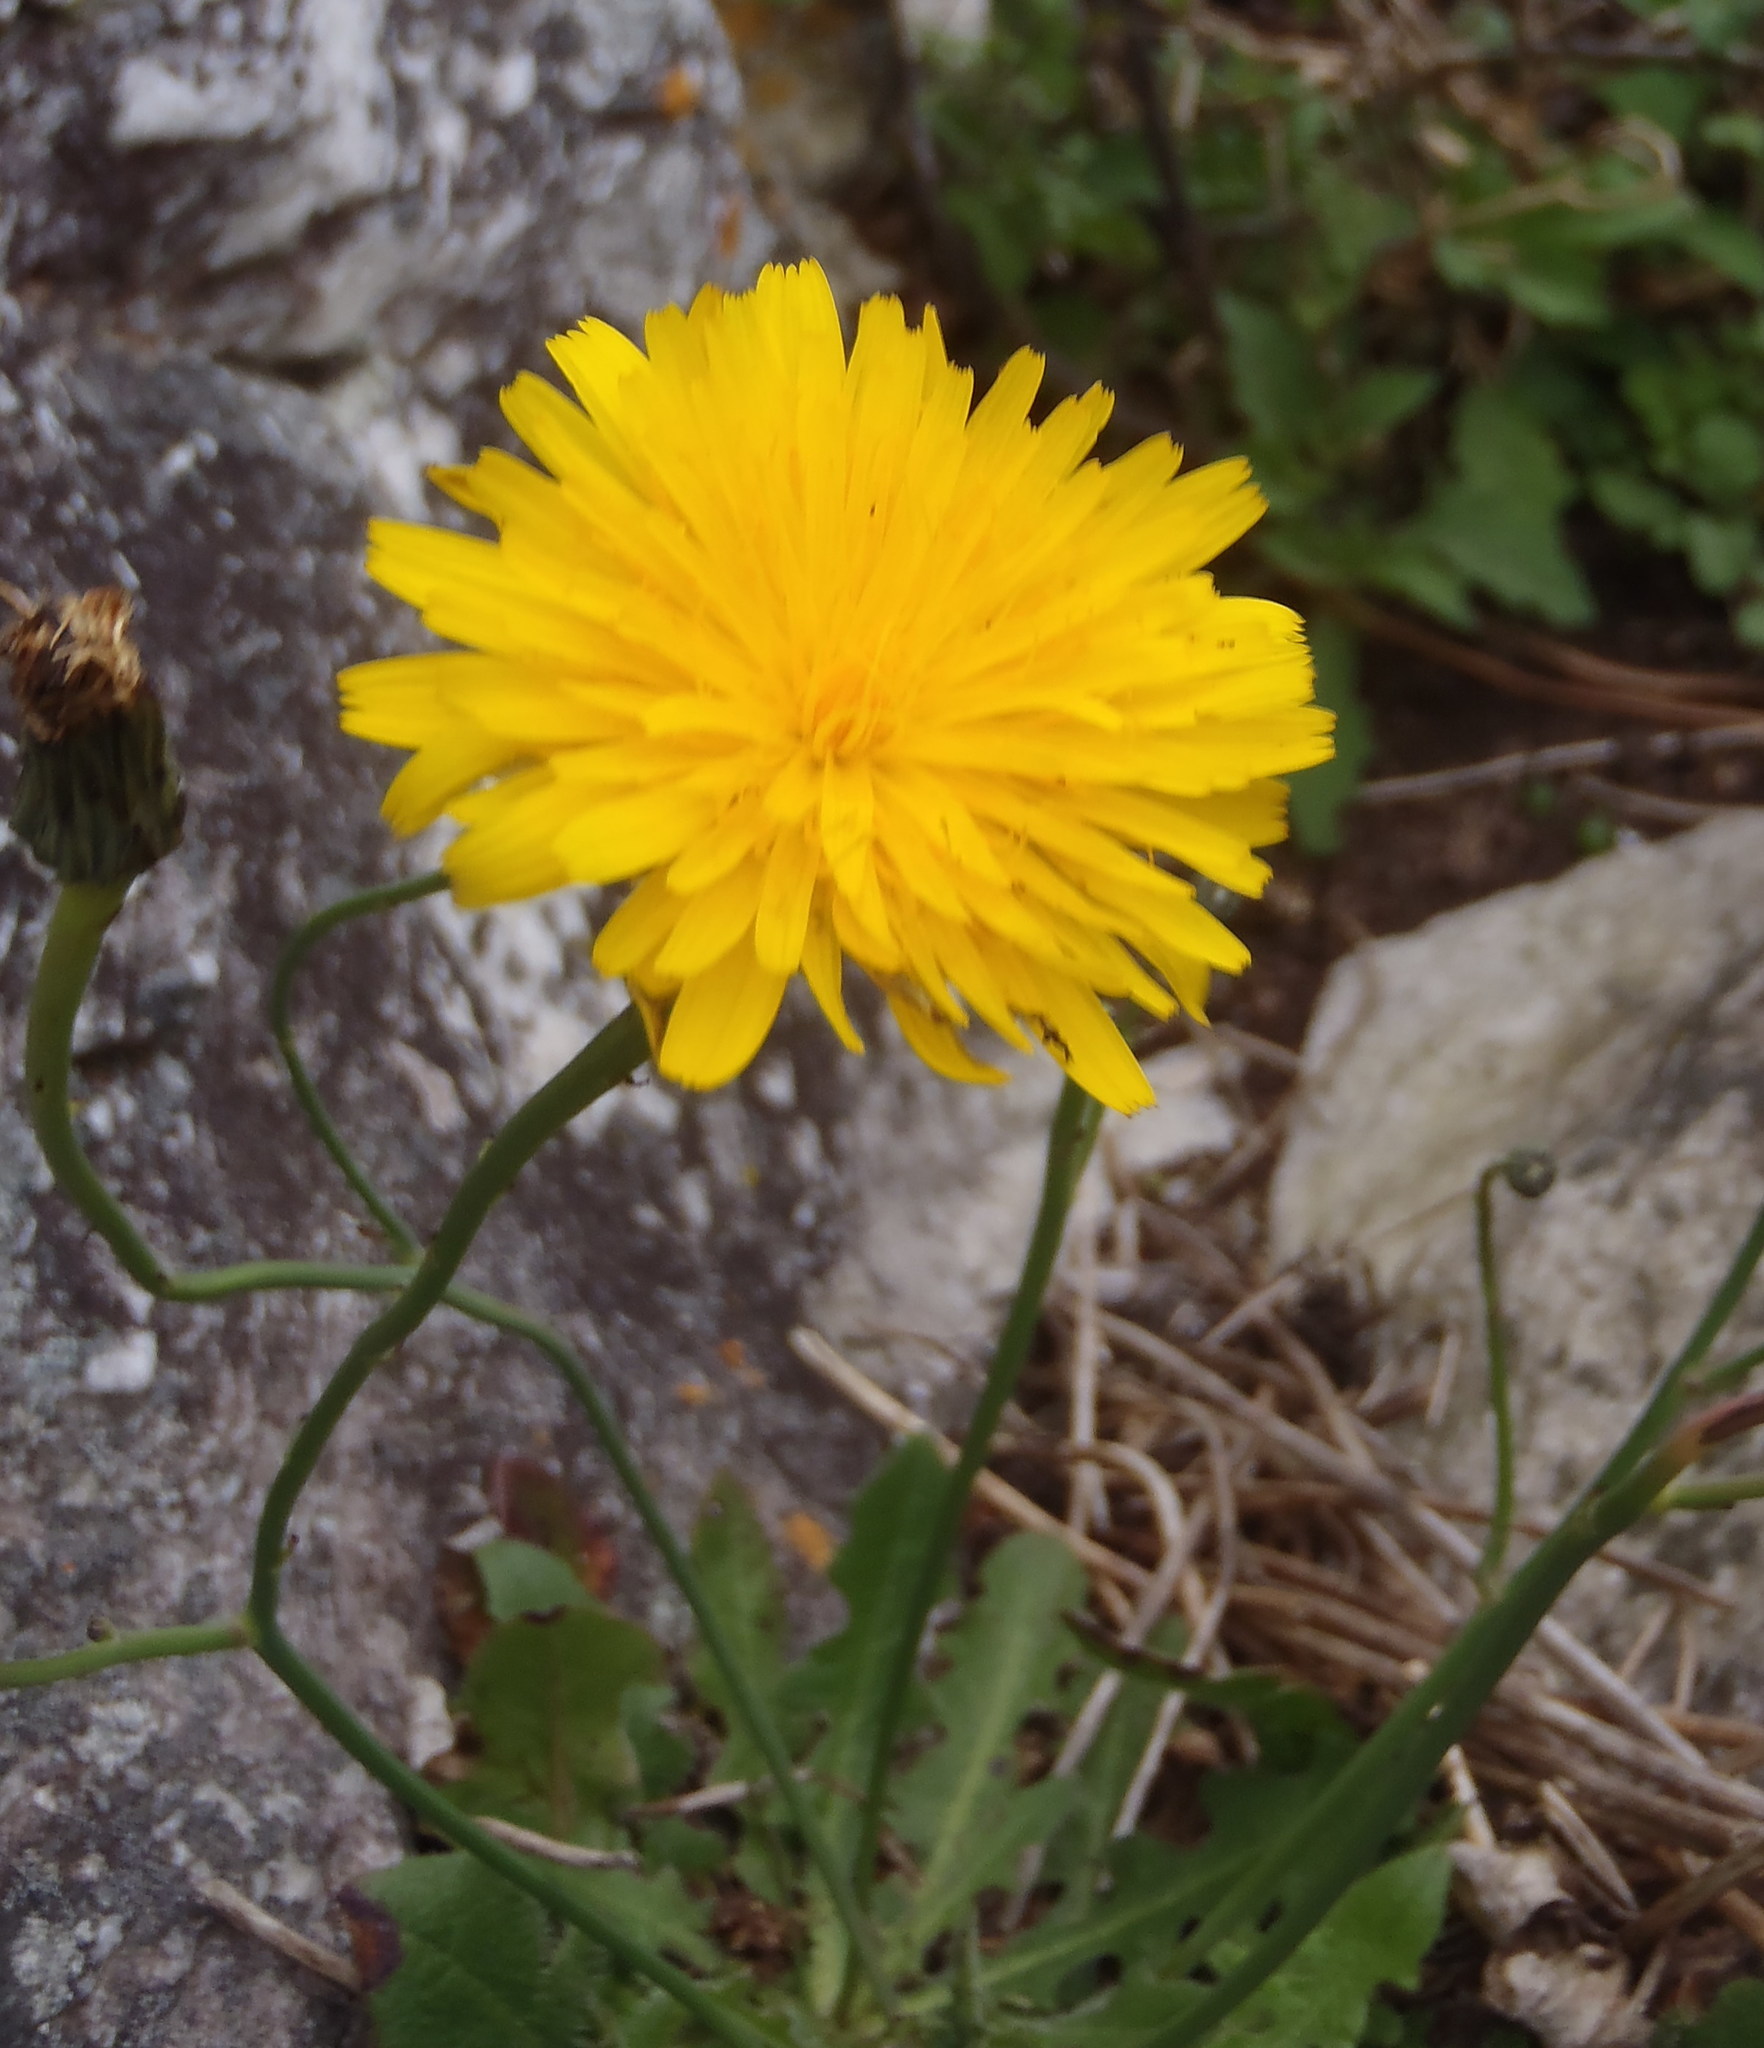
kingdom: Plantae
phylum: Tracheophyta
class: Magnoliopsida
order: Asterales
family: Asteraceae
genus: Hypochaeris
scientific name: Hypochaeris radicata
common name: Flatweed
